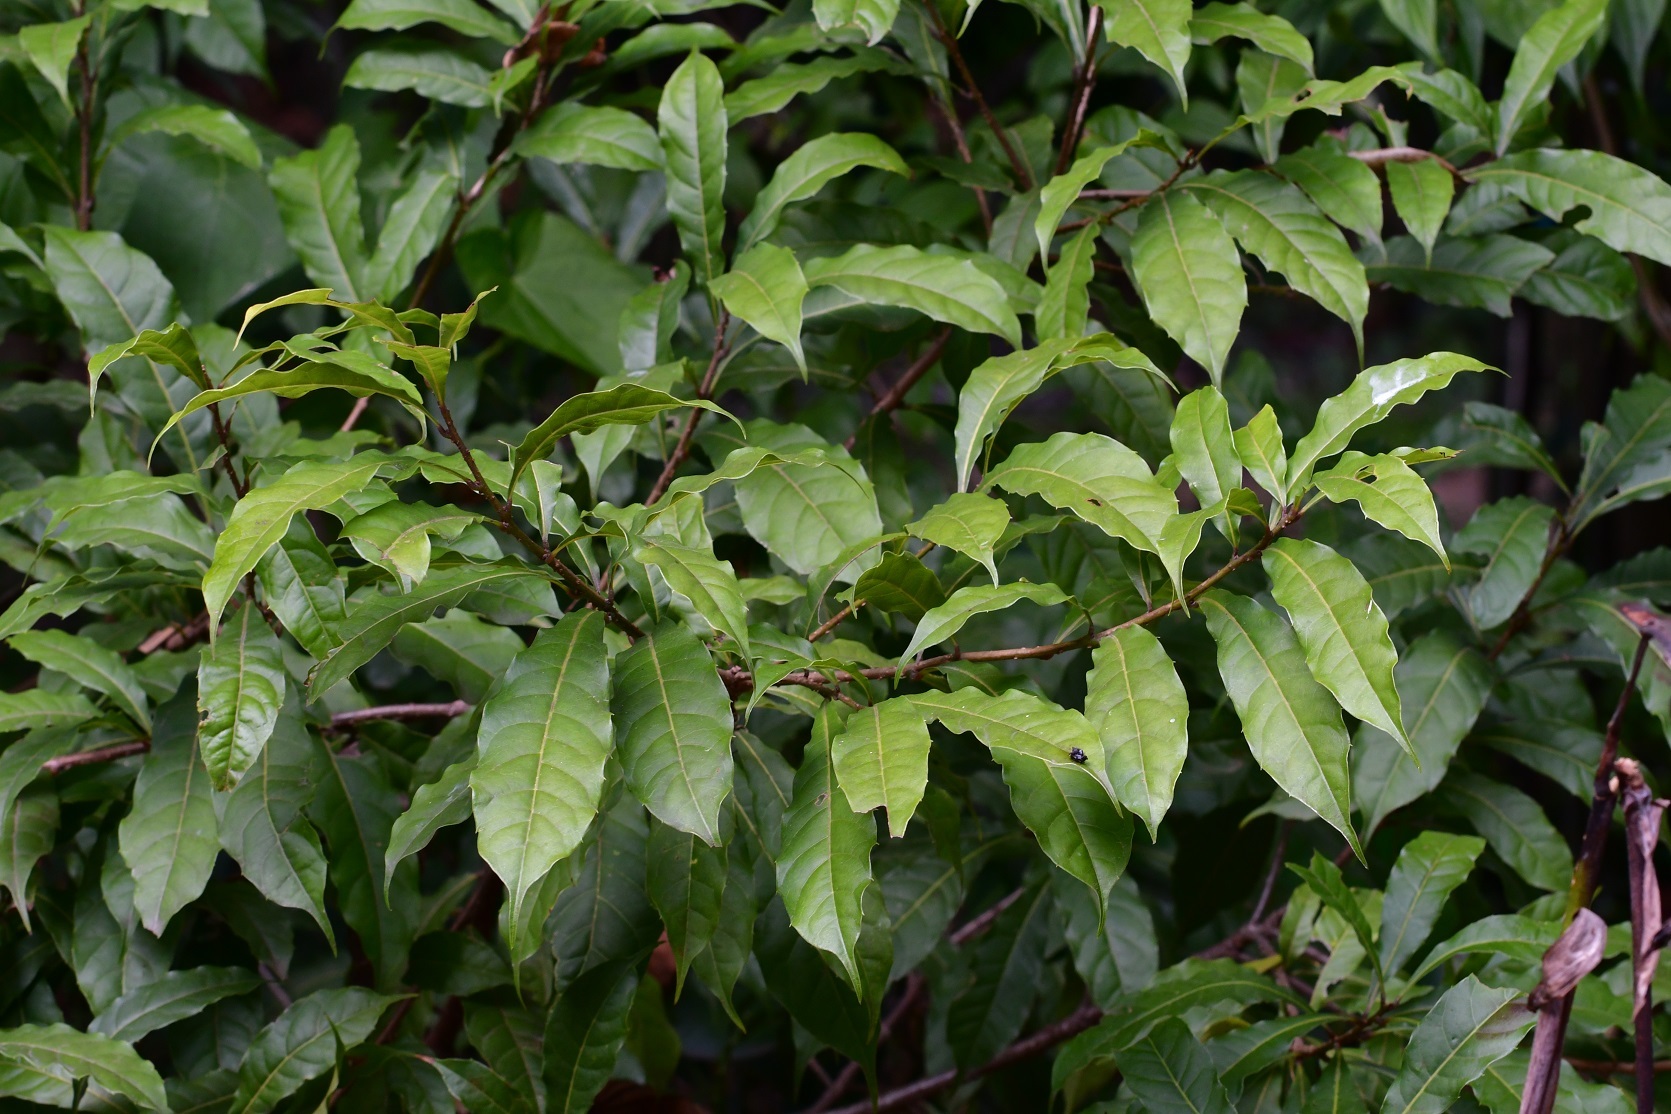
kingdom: Plantae
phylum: Tracheophyta
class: Magnoliopsida
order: Proteales
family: Sabiaceae
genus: Meliosma
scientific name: Meliosma dentata
